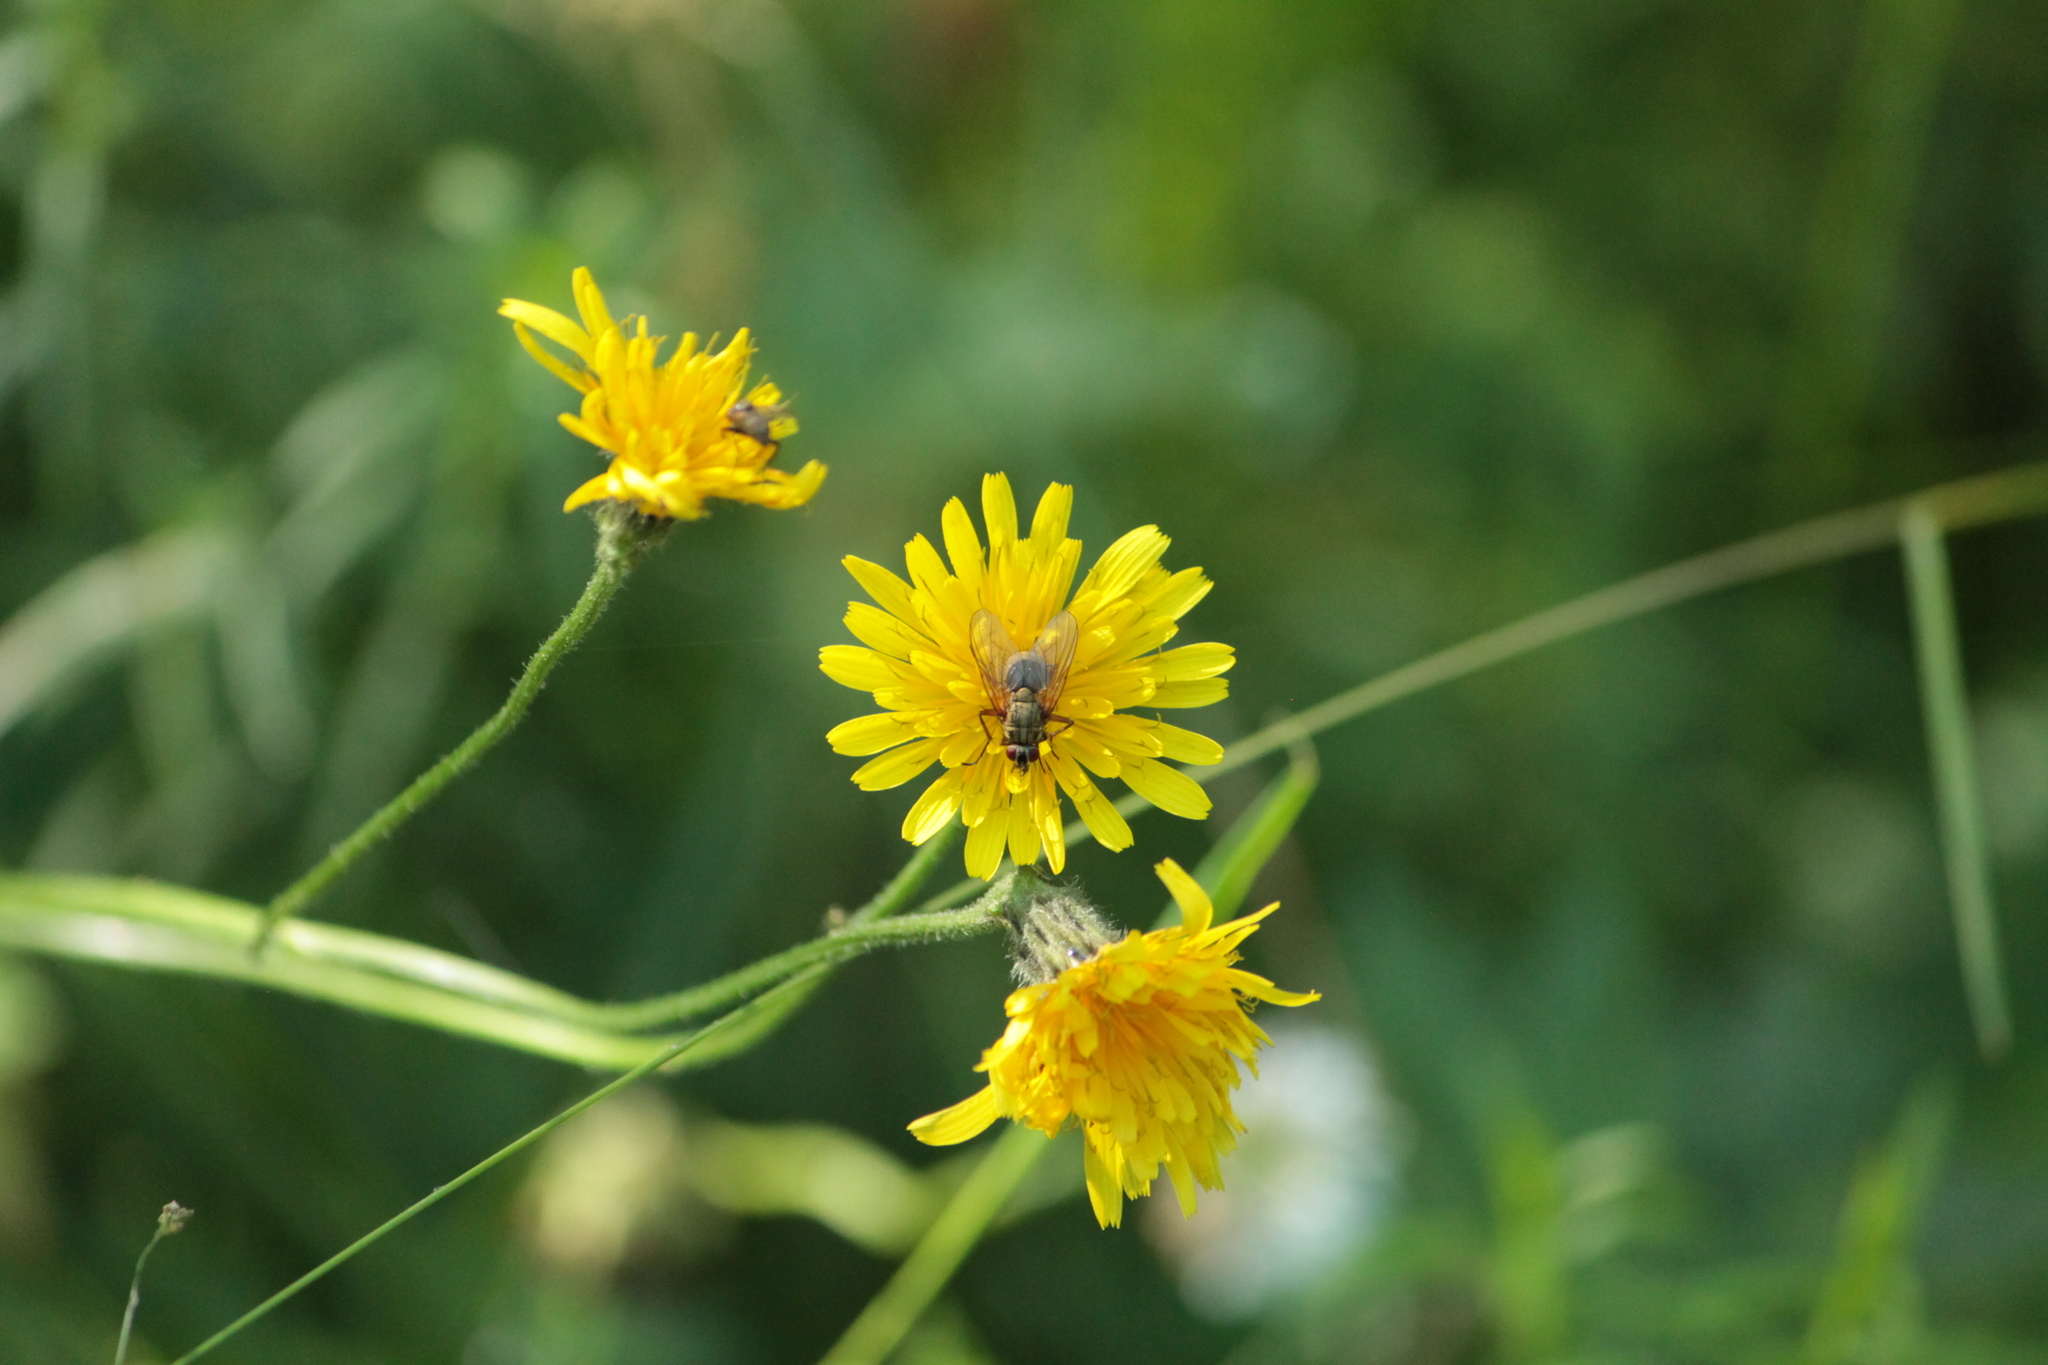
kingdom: Animalia
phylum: Arthropoda
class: Insecta
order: Diptera
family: Muscidae
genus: Phaonia
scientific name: Phaonia angelicae
